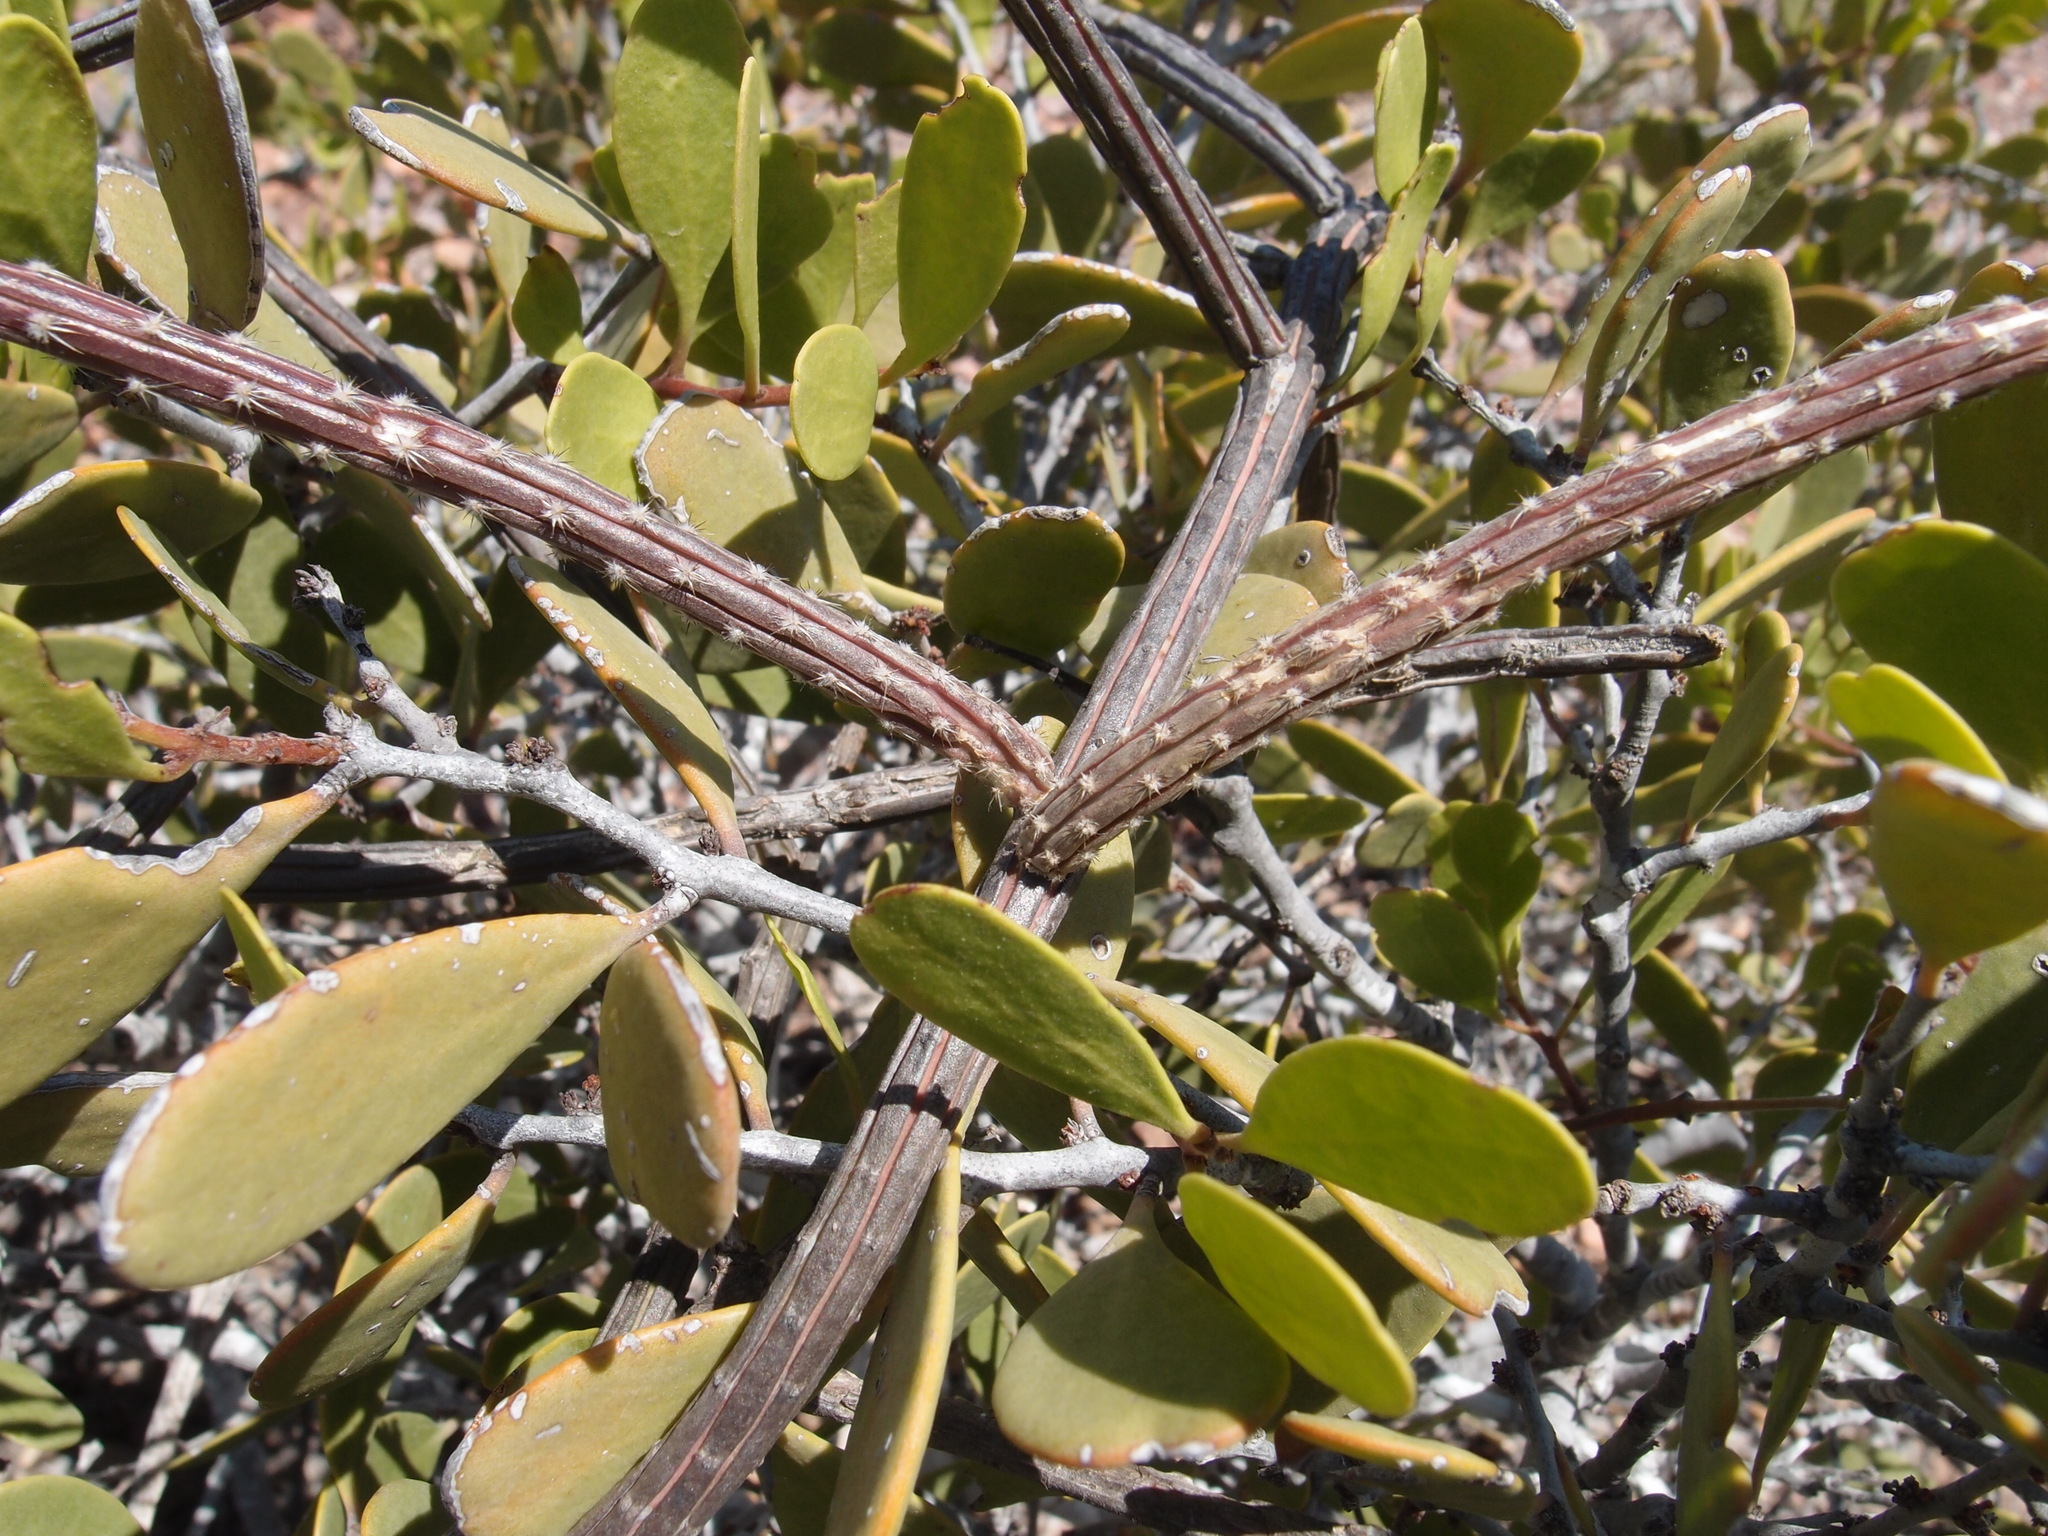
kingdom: Plantae
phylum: Tracheophyta
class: Magnoliopsida
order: Caryophyllales
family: Cactaceae
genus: Peniocereus
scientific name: Peniocereus striatus
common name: Gearstem cactus
